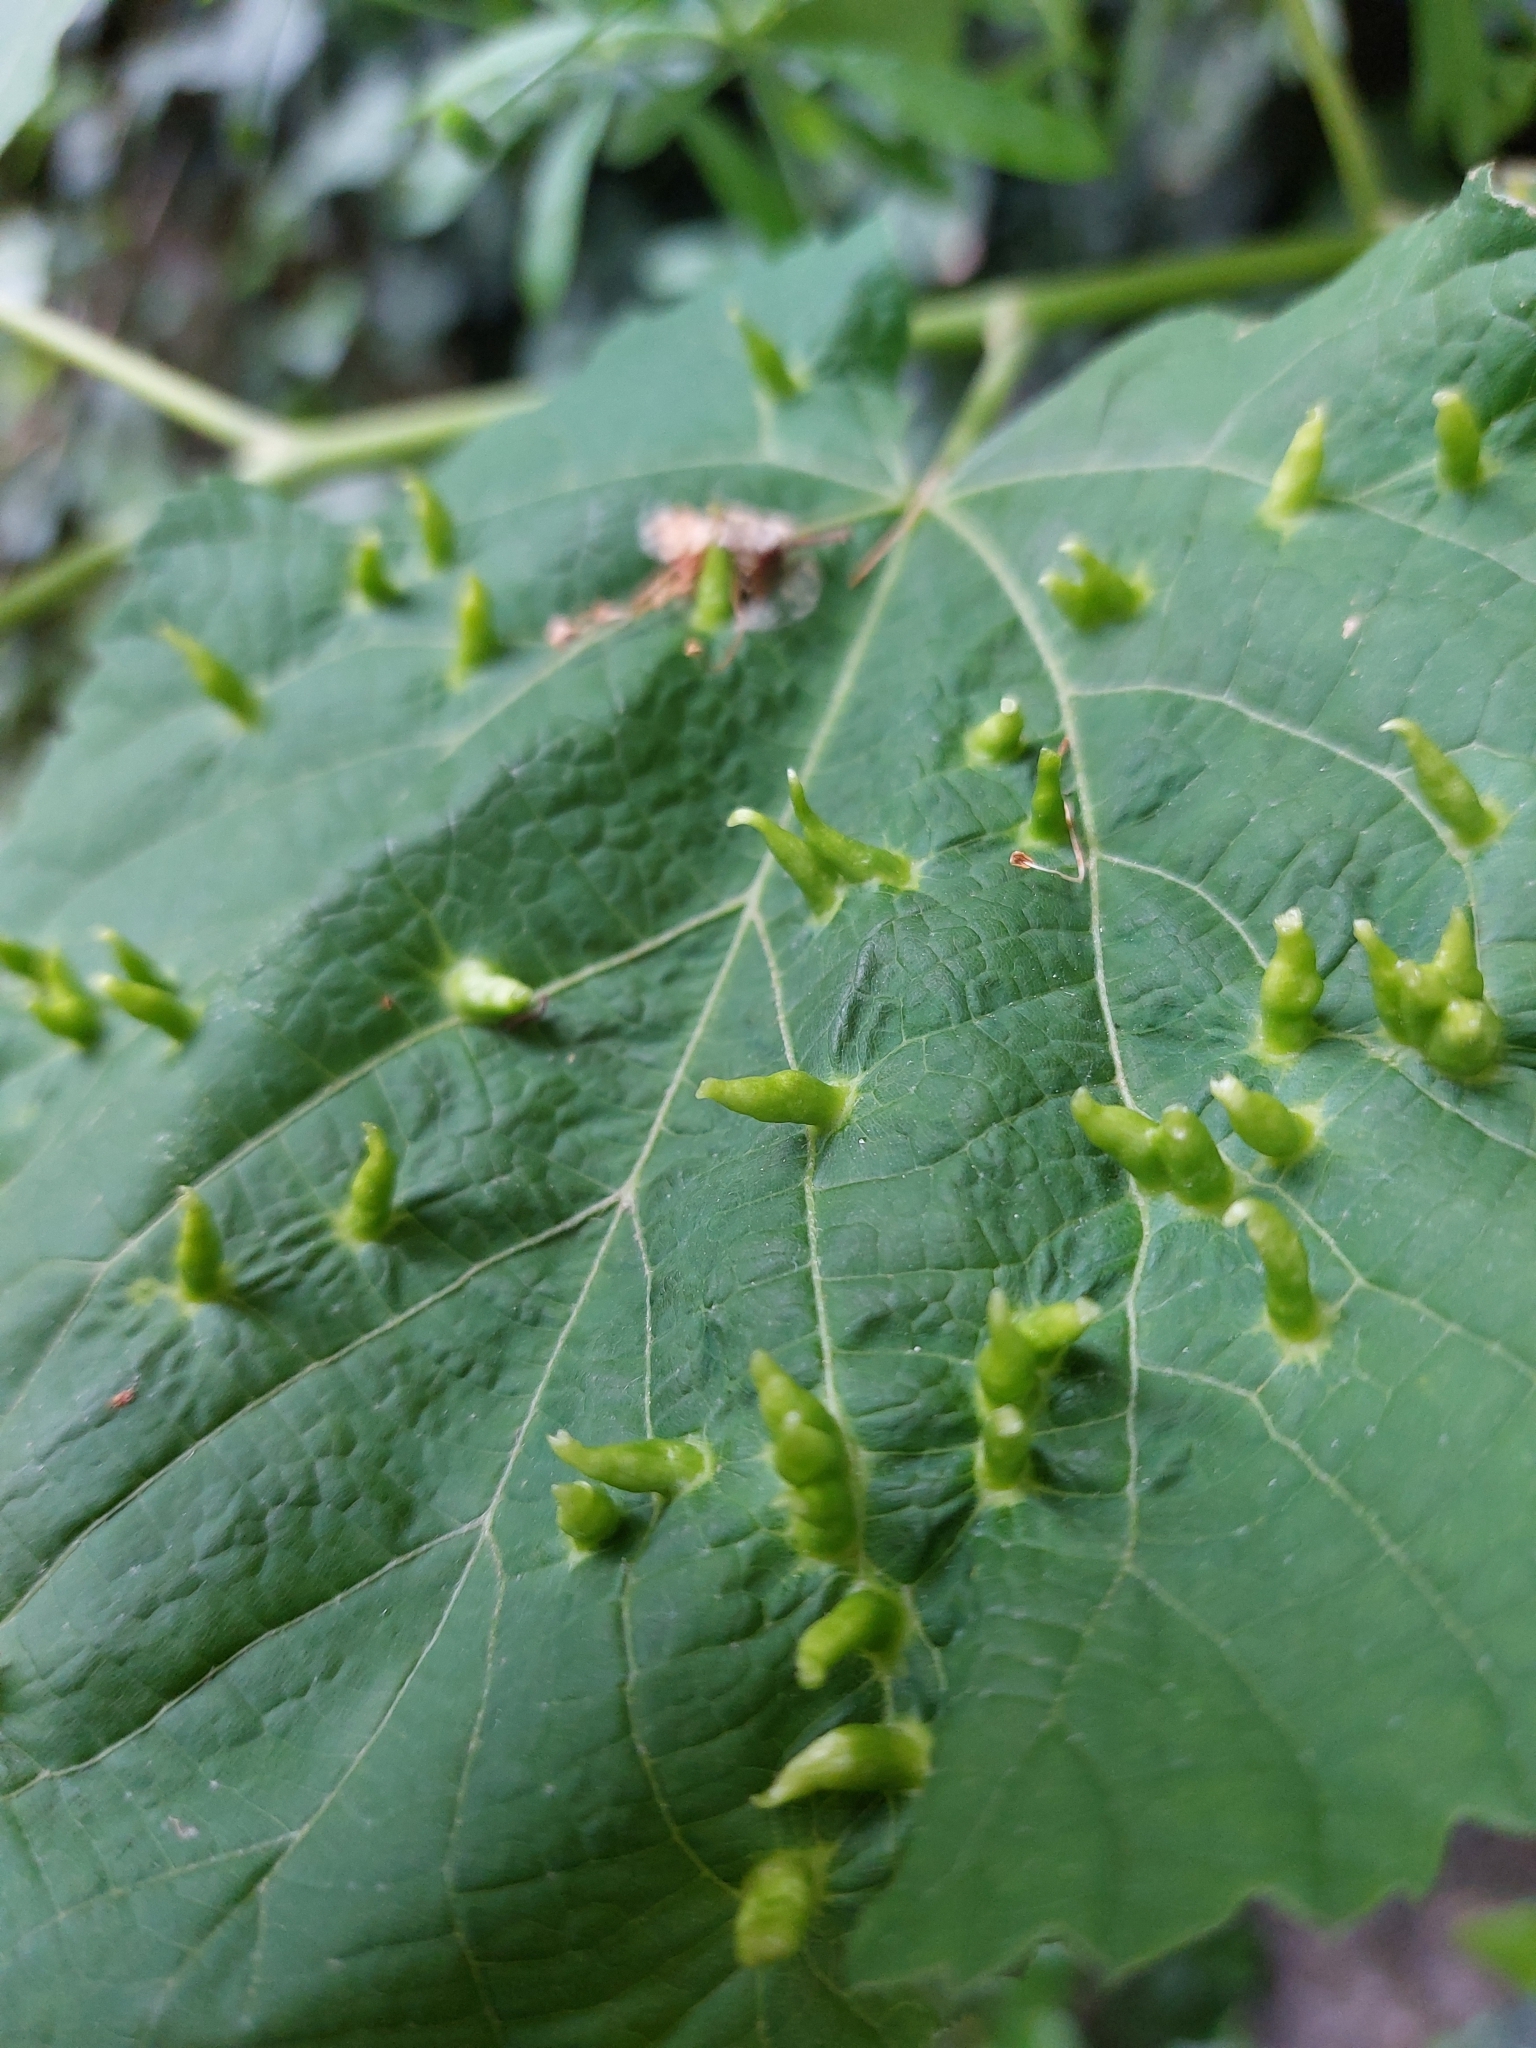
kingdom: Animalia
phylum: Arthropoda
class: Arachnida
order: Trombidiformes
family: Eriophyidae
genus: Eriophyes
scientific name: Eriophyes tiliae
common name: Red nail gall mite
